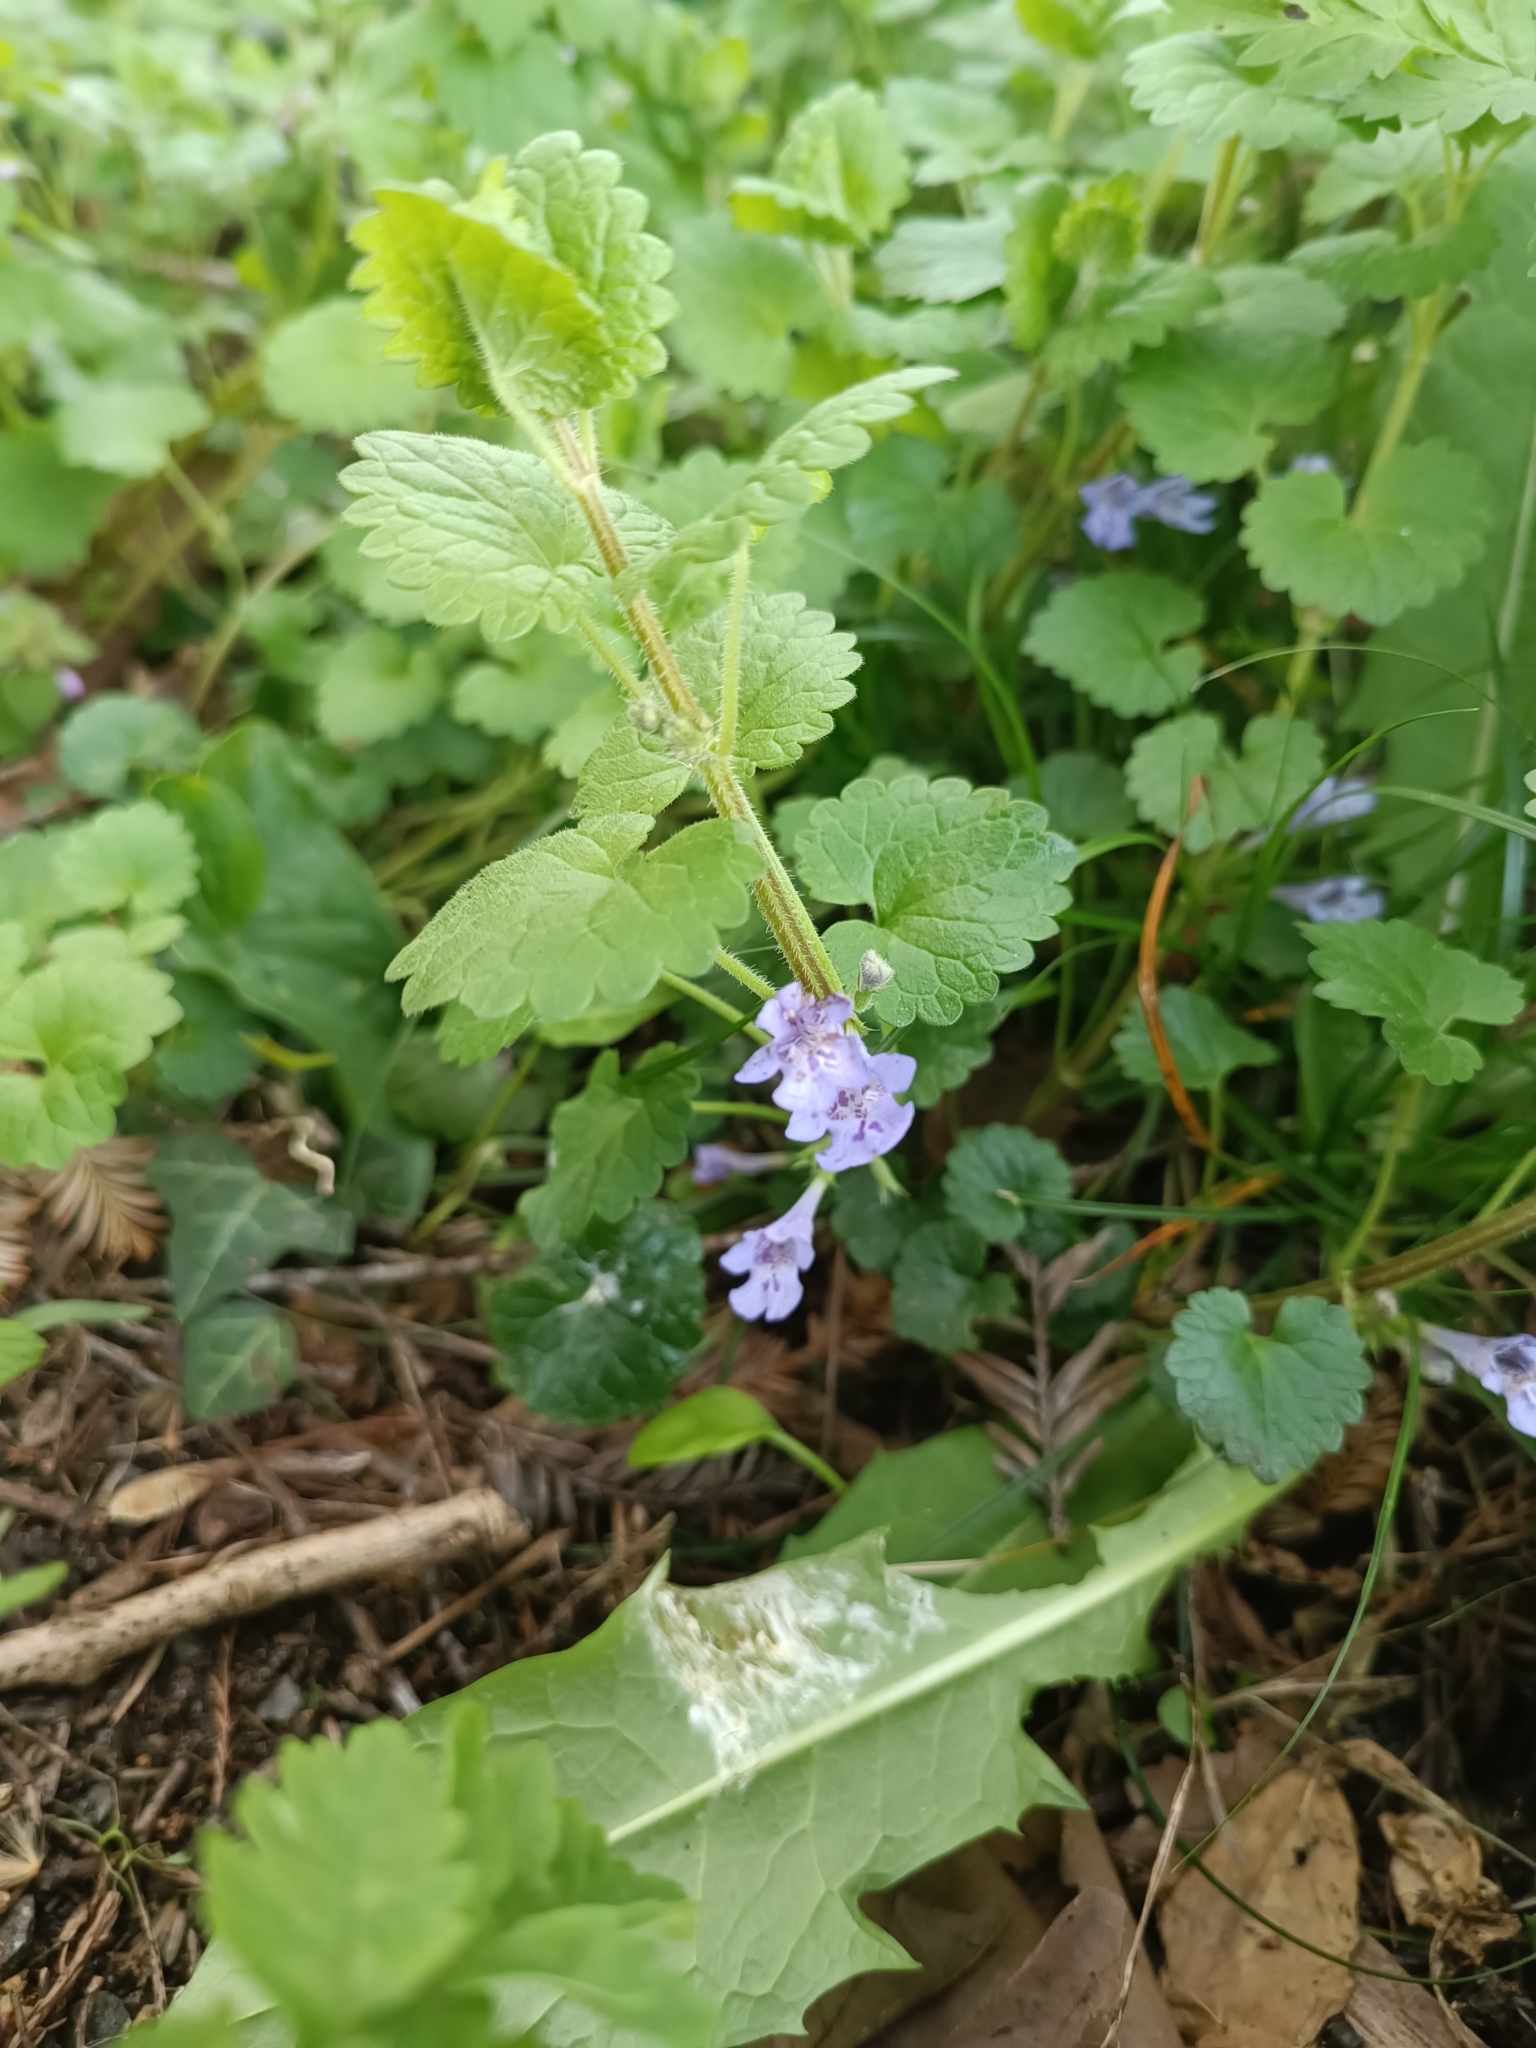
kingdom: Plantae
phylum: Tracheophyta
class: Magnoliopsida
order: Lamiales
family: Lamiaceae
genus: Glechoma
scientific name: Glechoma hederacea
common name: Ground ivy
